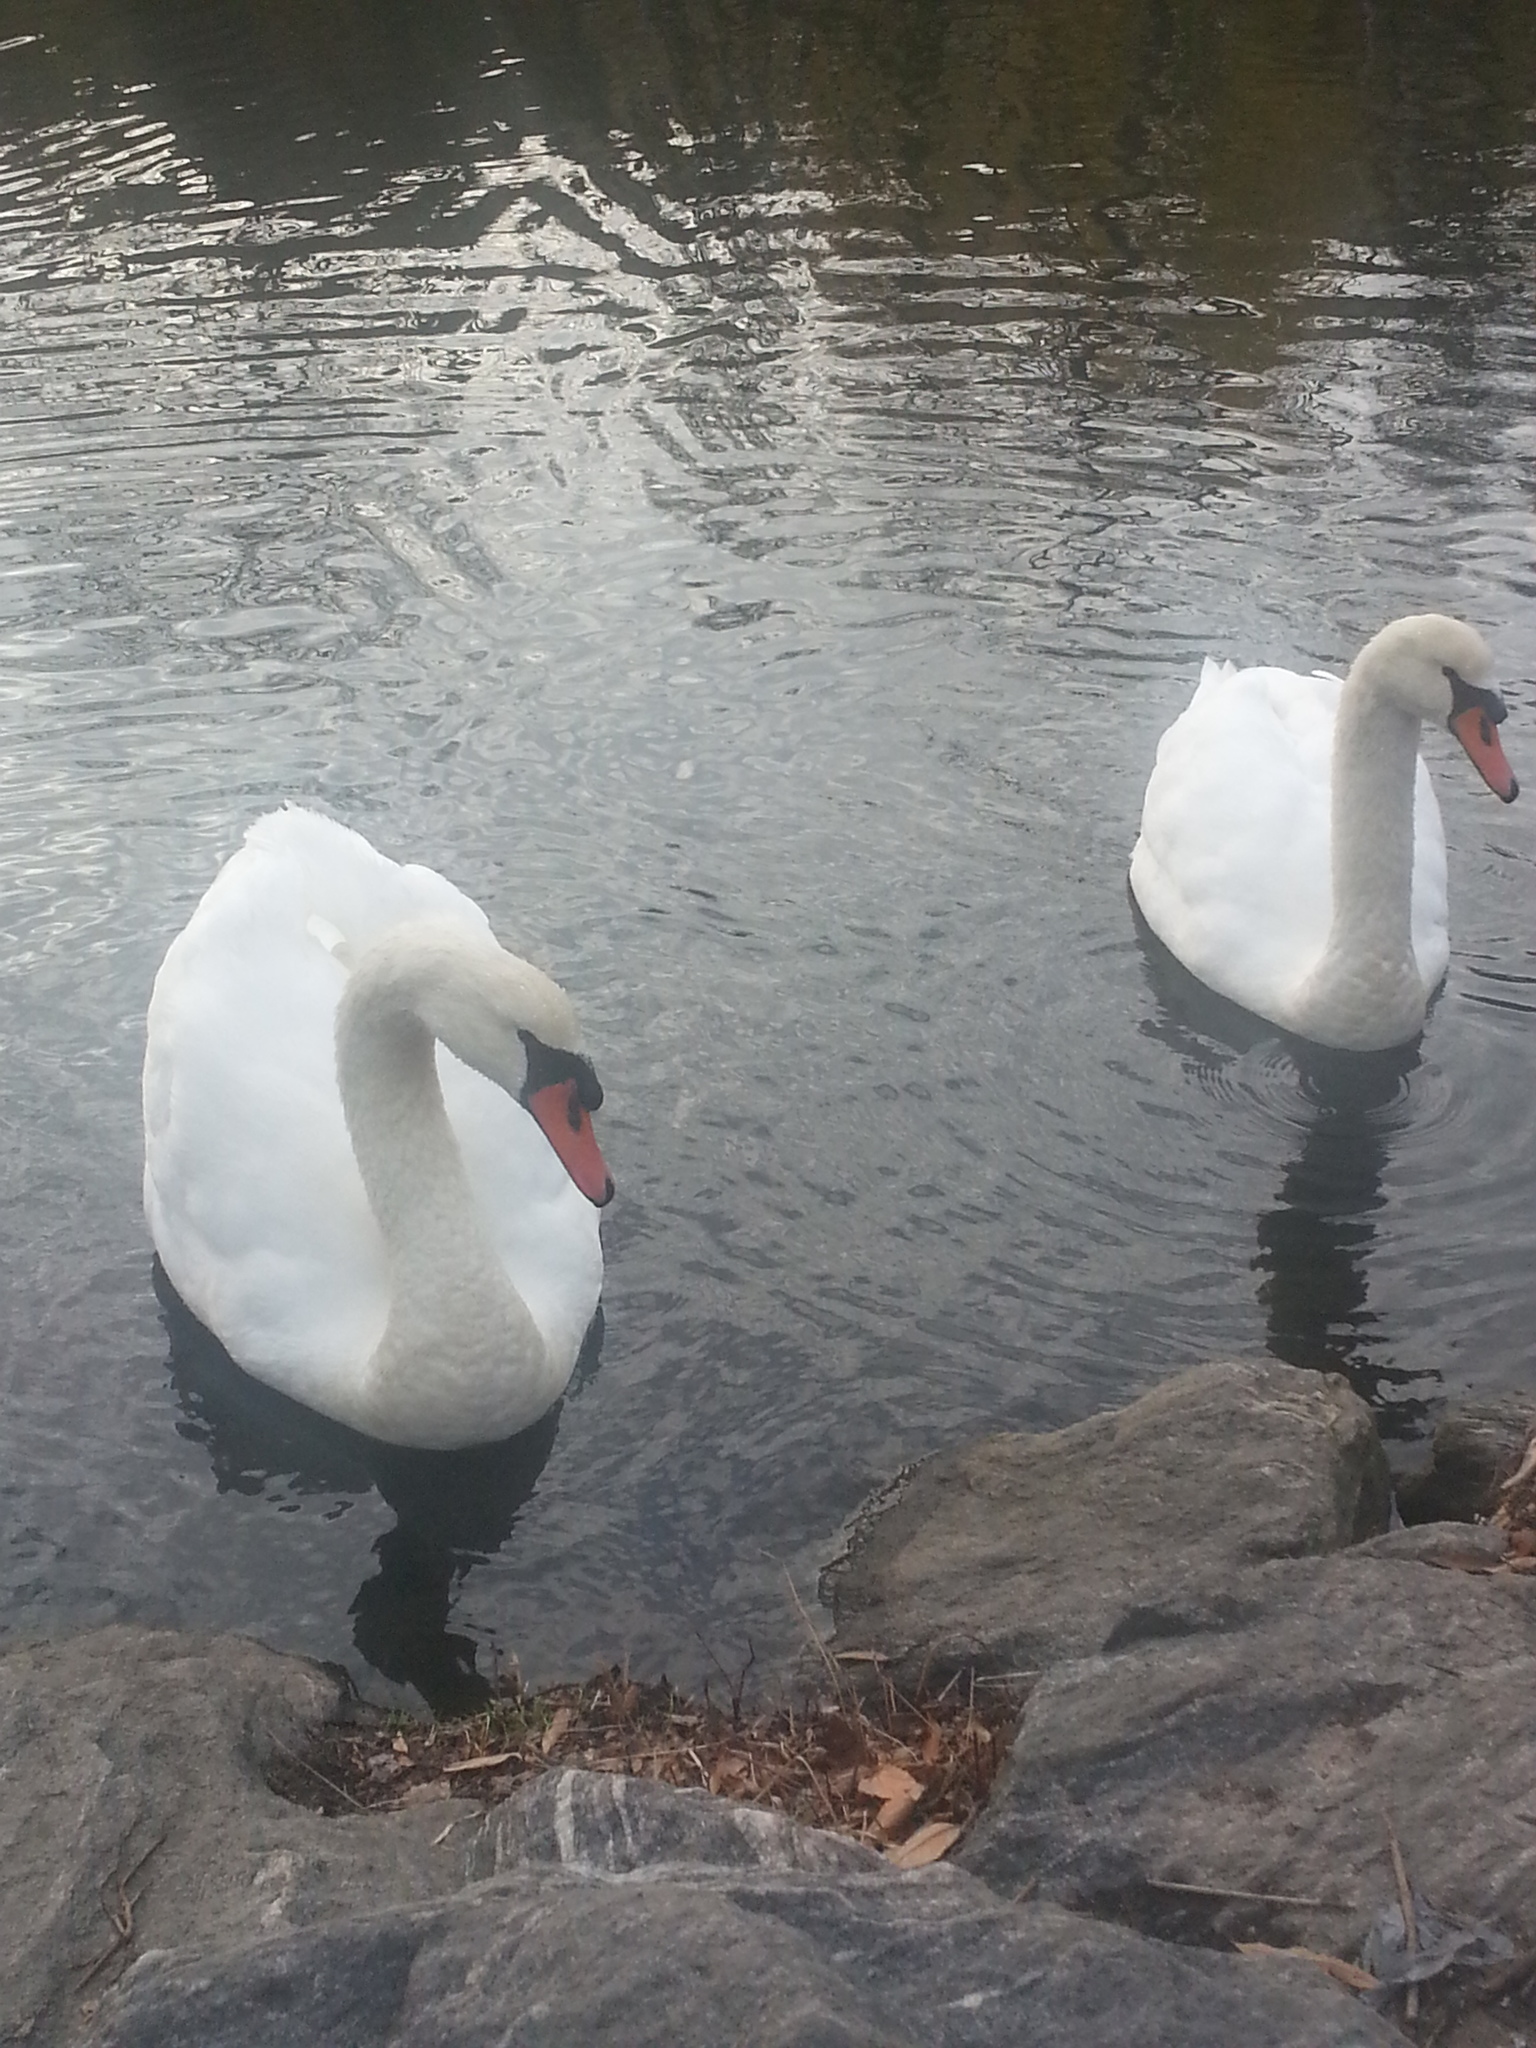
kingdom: Animalia
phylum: Chordata
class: Aves
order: Anseriformes
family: Anatidae
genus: Cygnus
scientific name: Cygnus olor
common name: Mute swan
